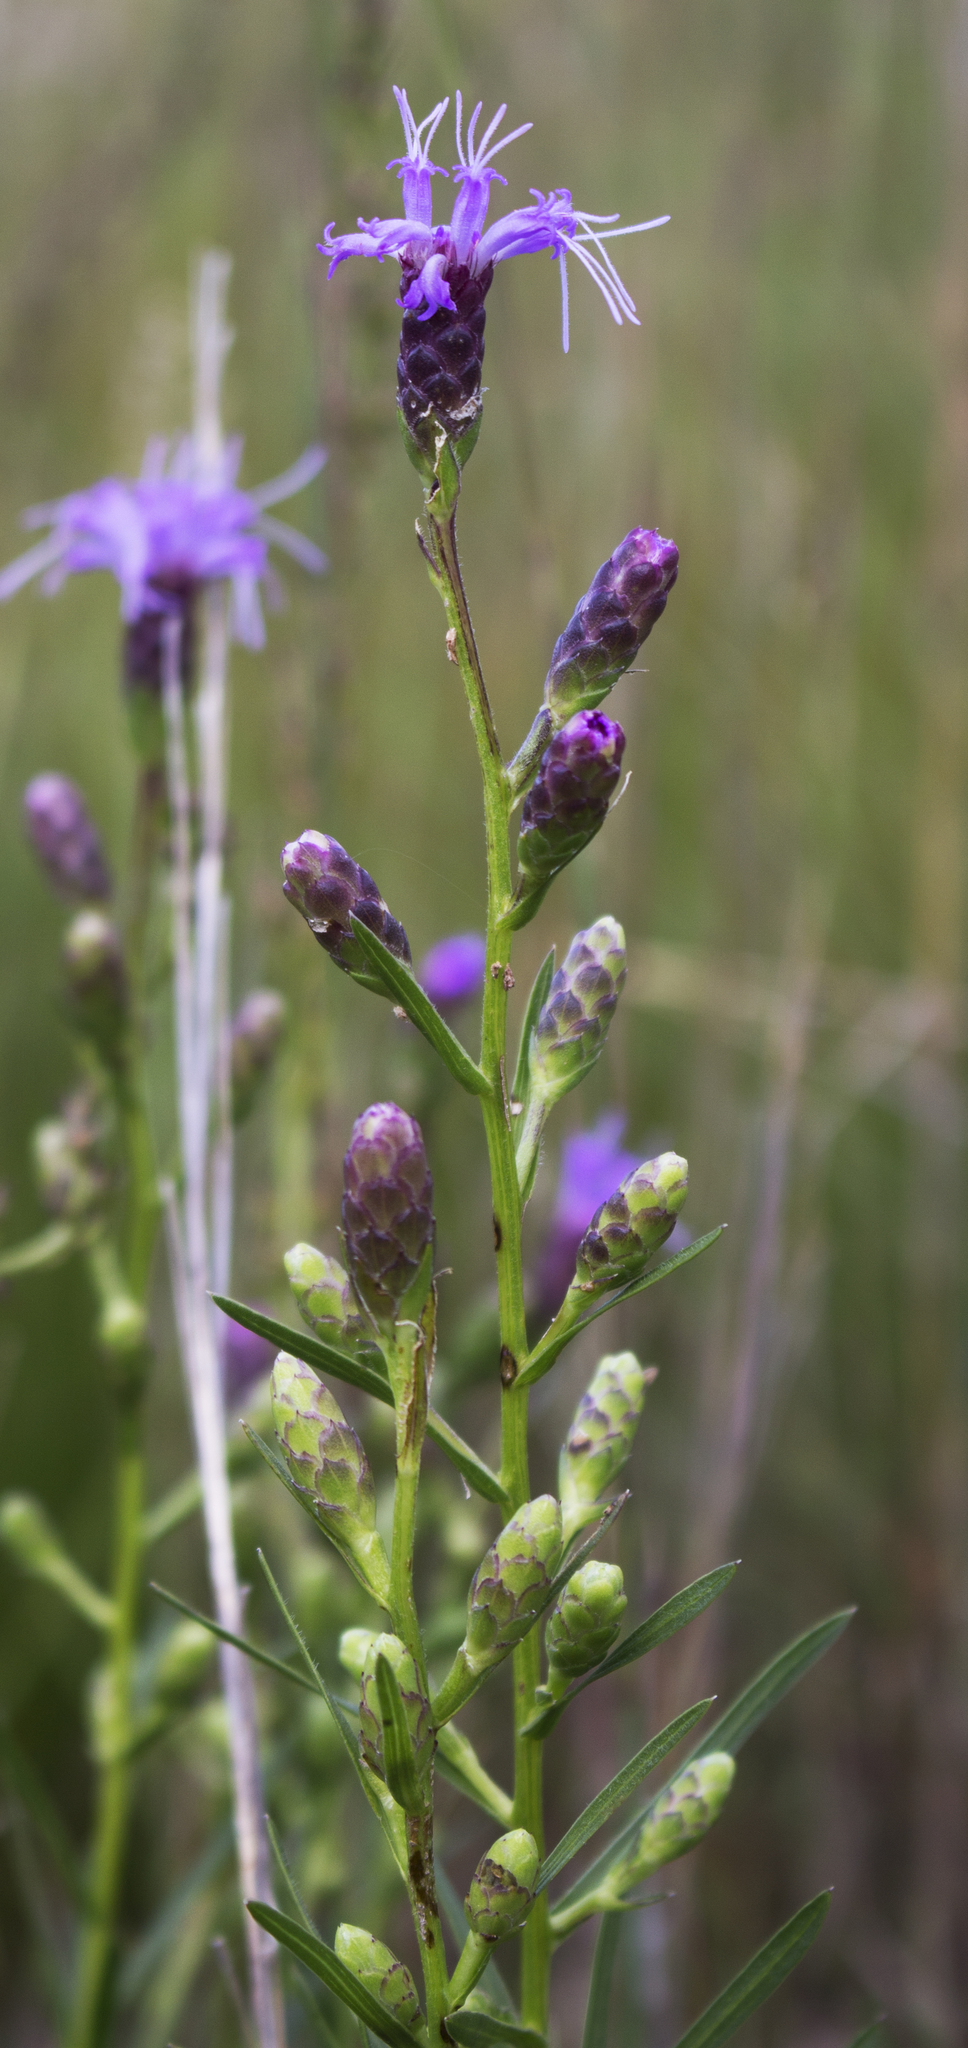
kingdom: Plantae
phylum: Tracheophyta
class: Magnoliopsida
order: Asterales
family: Asteraceae
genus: Liatris
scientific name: Liatris cylindracea
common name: Few-head blazingstar
